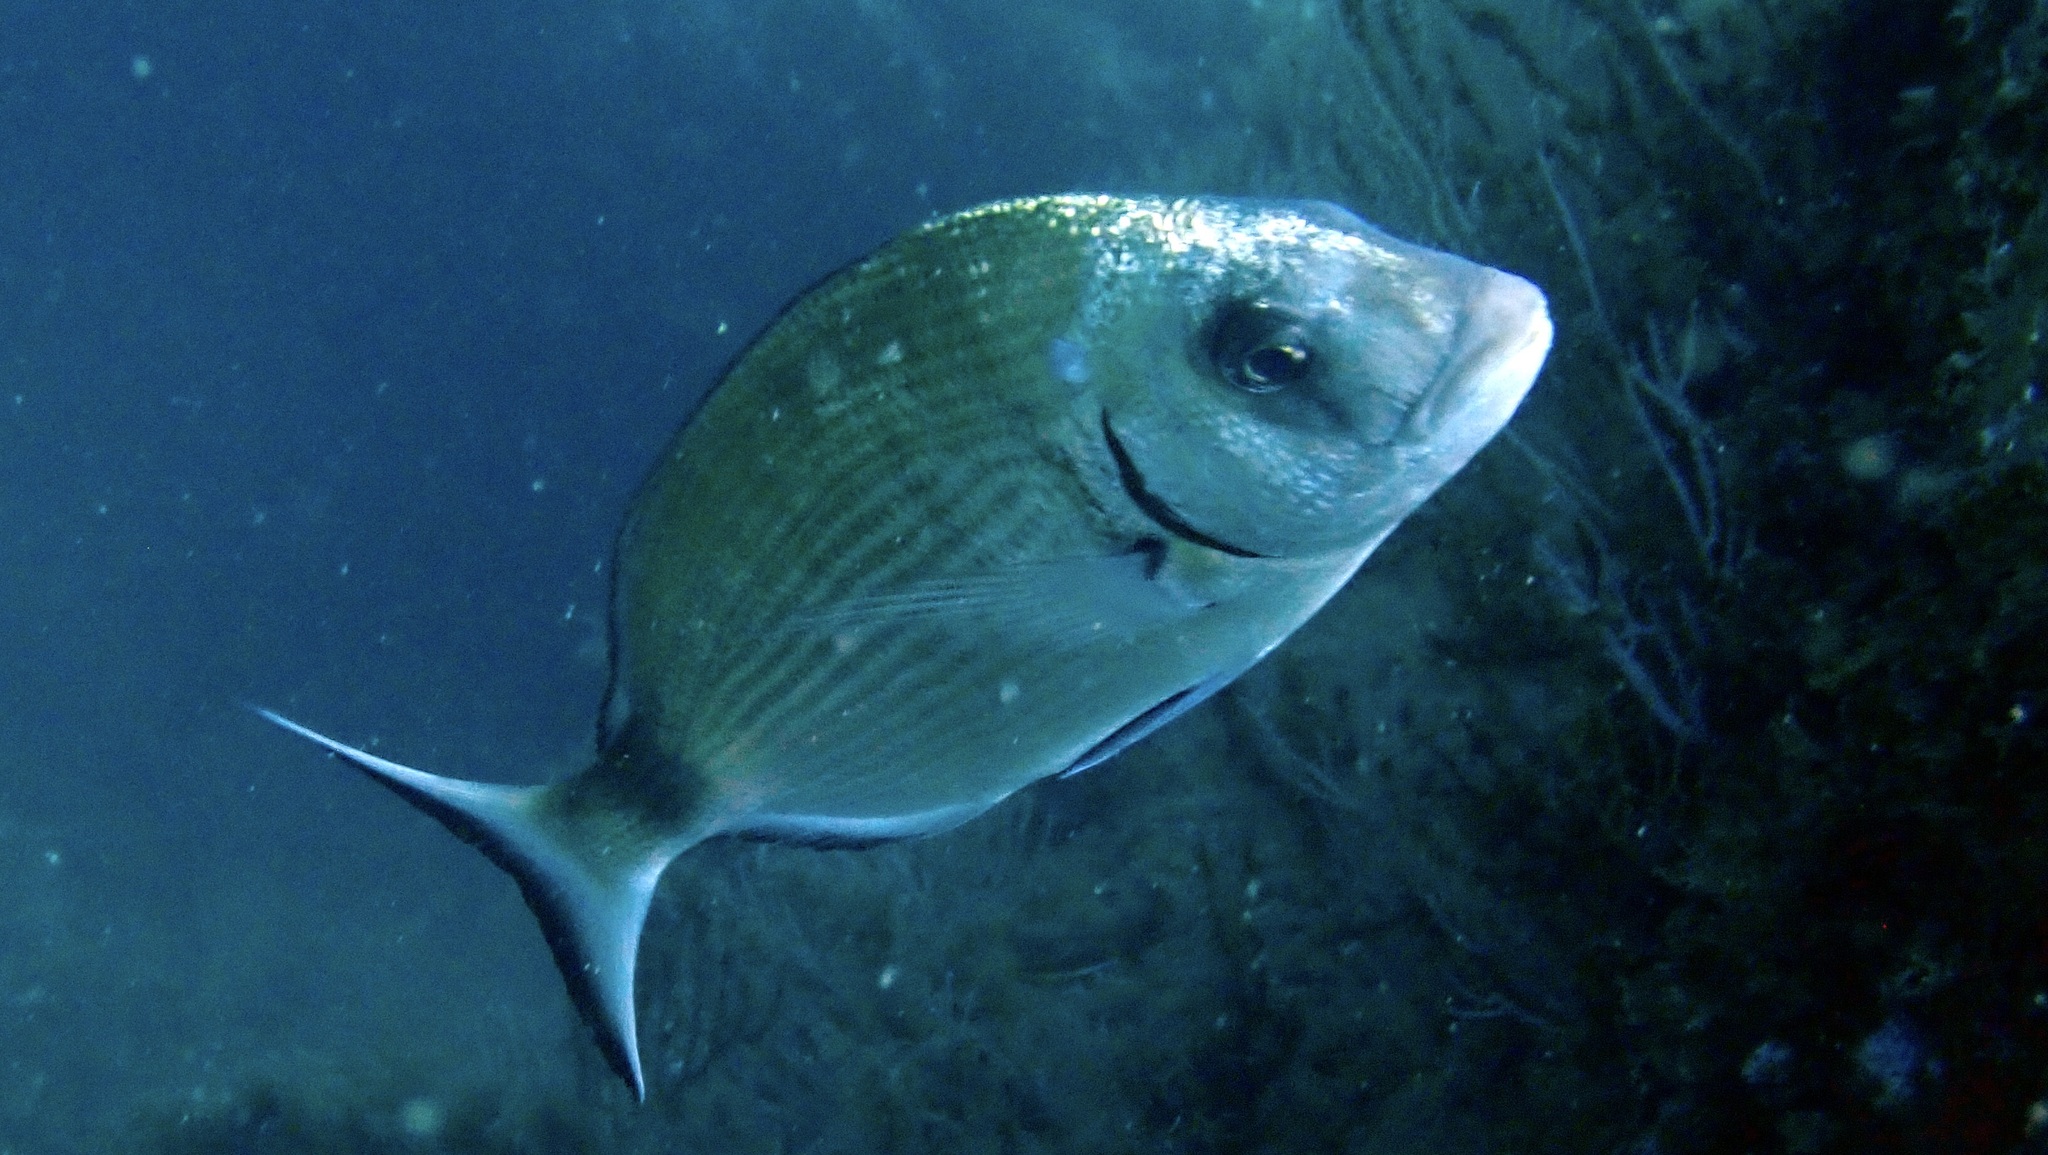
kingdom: Animalia
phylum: Chordata
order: Perciformes
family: Sparidae
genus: Diplodus
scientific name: Diplodus sargus
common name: White seabream
